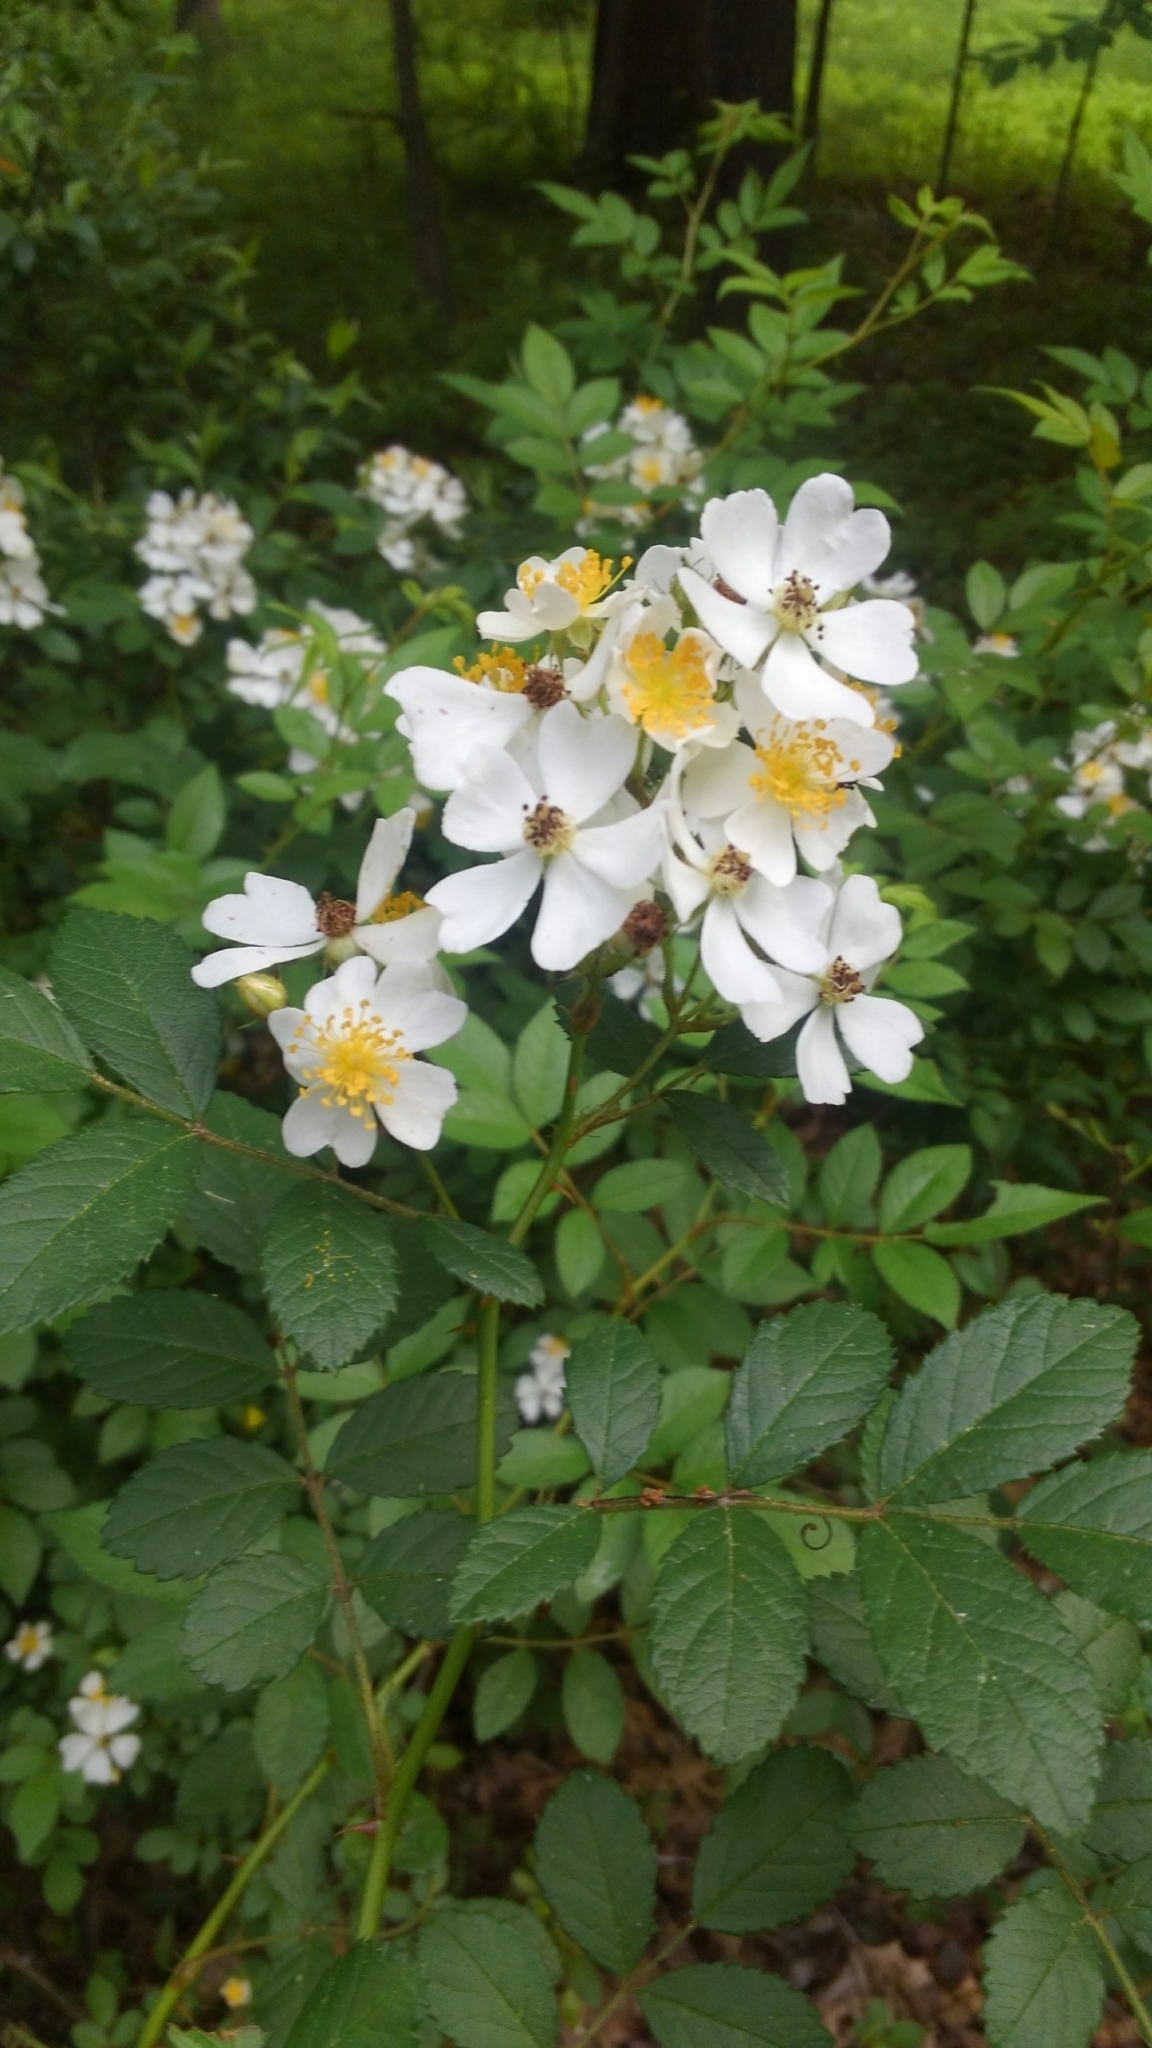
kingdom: Plantae
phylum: Tracheophyta
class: Magnoliopsida
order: Rosales
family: Rosaceae
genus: Rosa
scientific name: Rosa multiflora
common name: Multiflora rose
